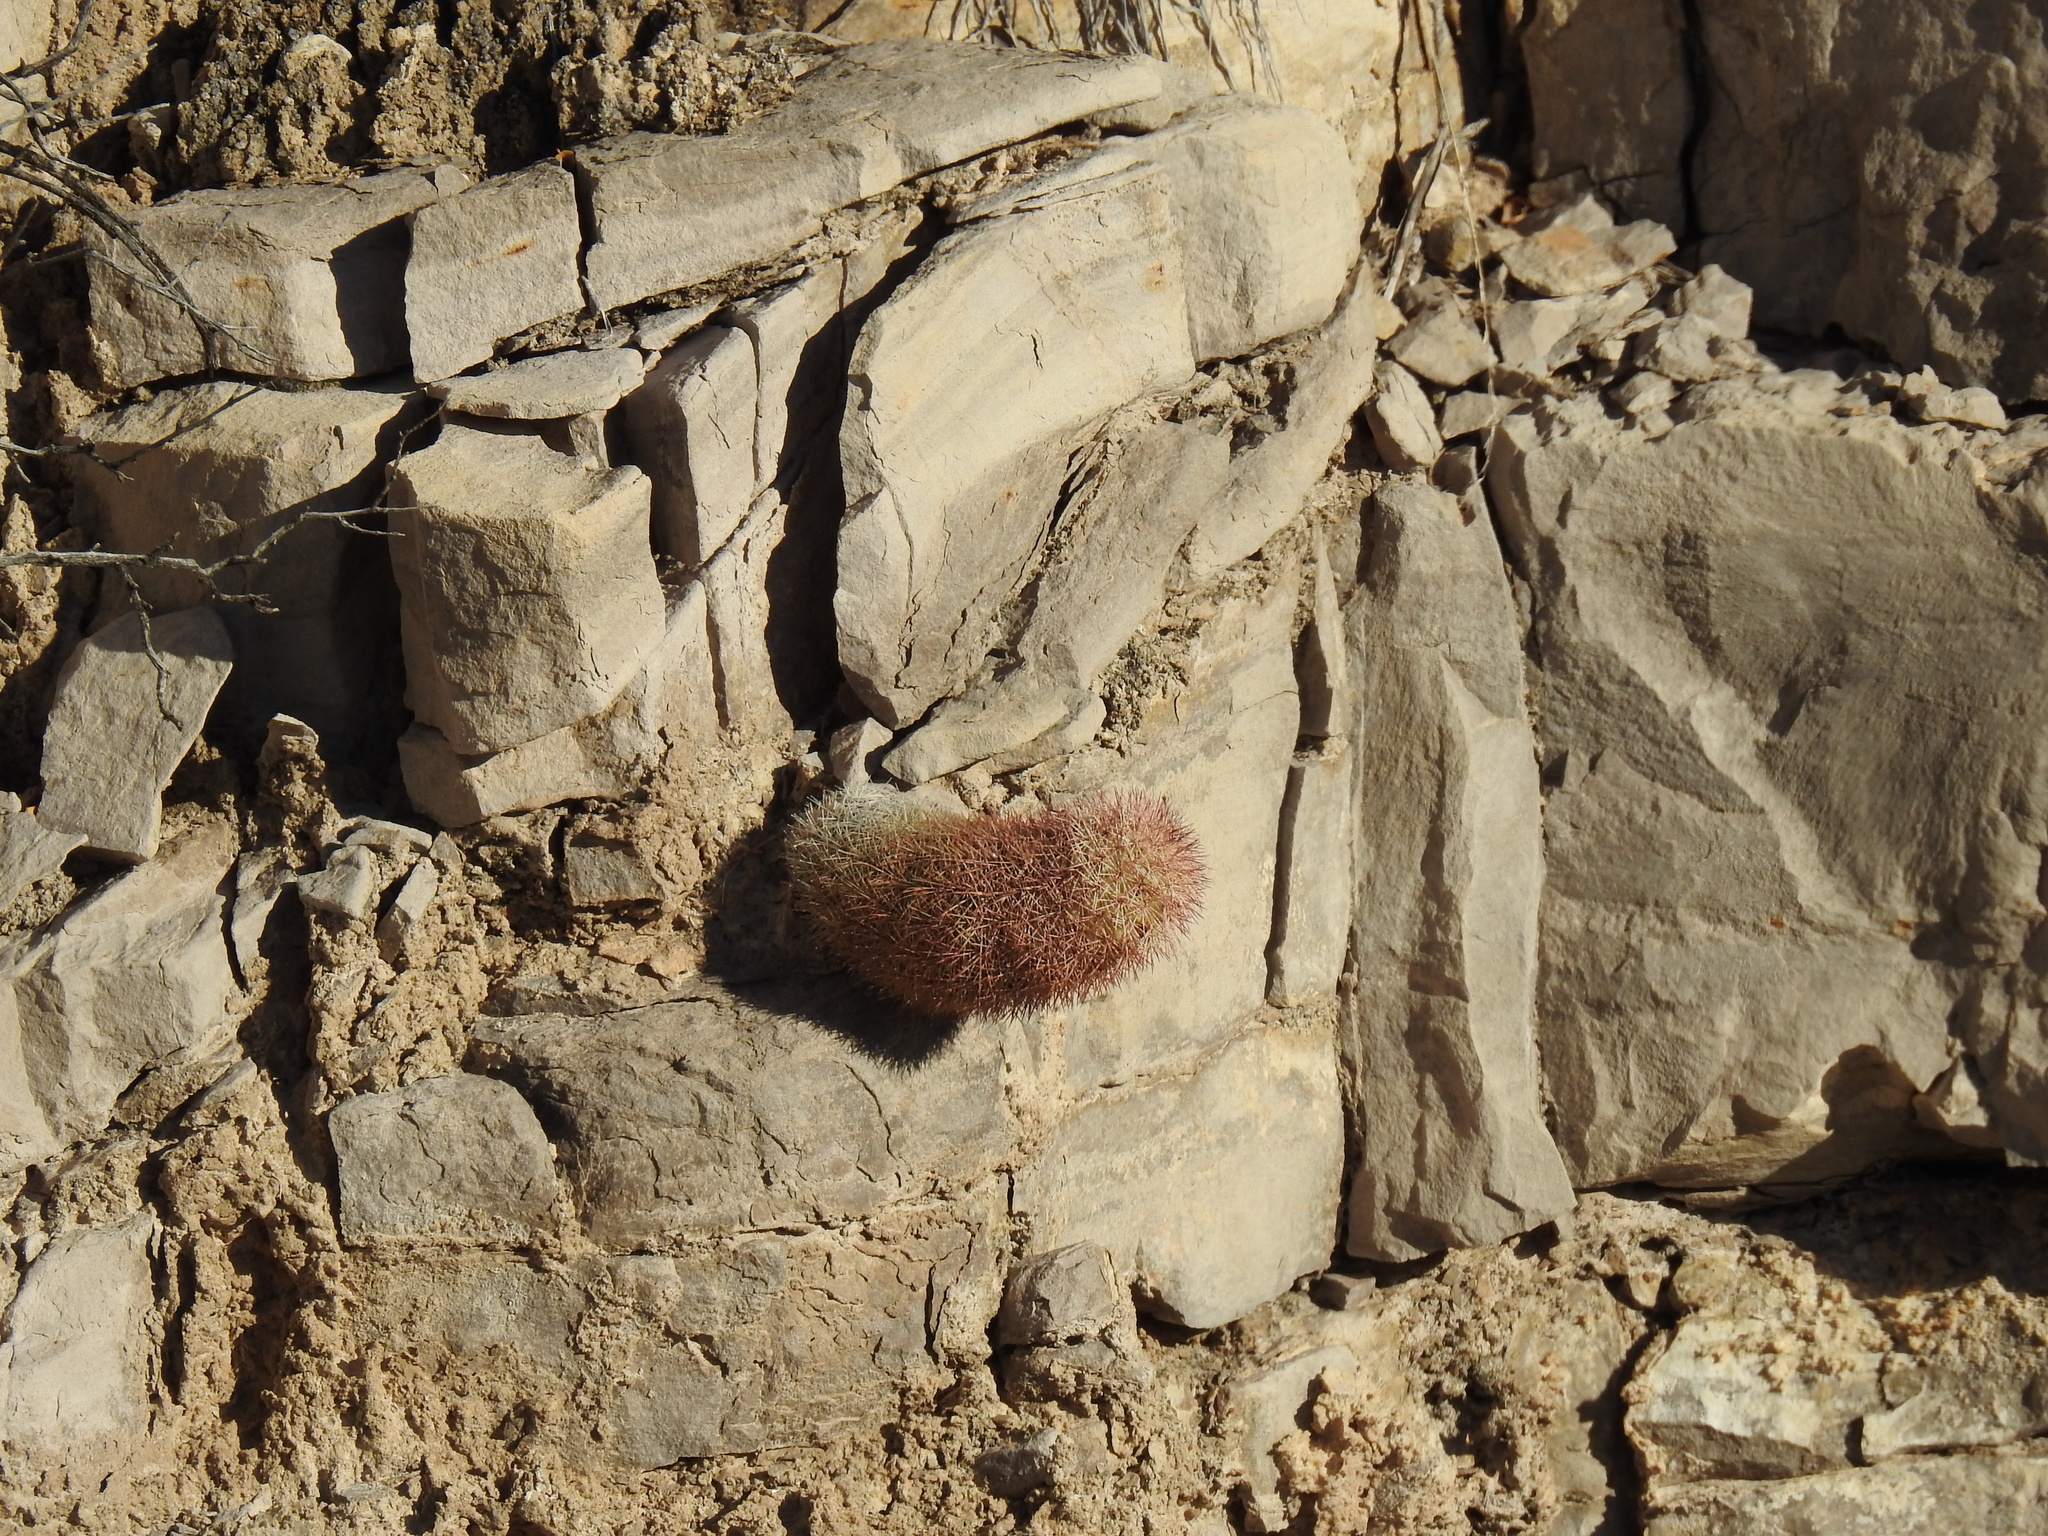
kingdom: Plantae
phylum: Tracheophyta
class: Magnoliopsida
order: Caryophyllales
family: Cactaceae
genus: Echinocereus
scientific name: Echinocereus dasyacanthus
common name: Spiny hedgehog cactus
